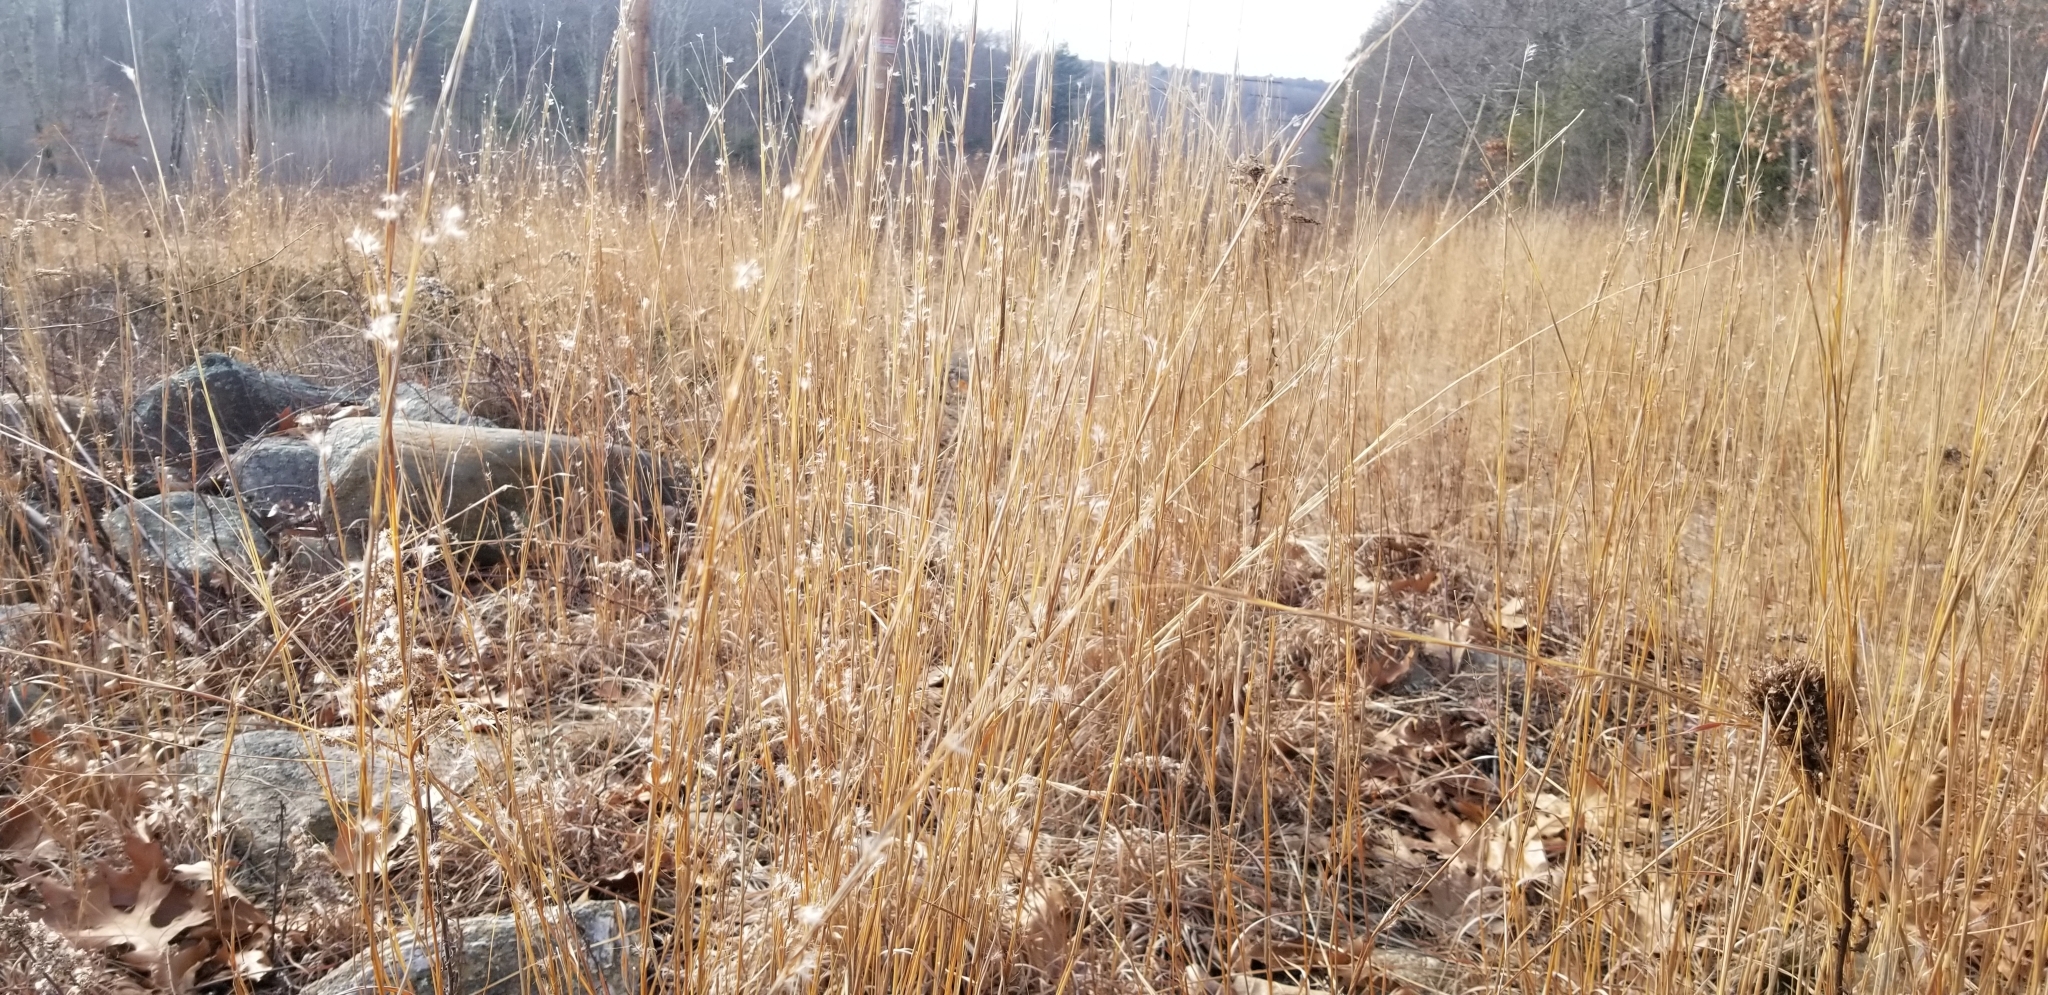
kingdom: Plantae
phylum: Tracheophyta
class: Liliopsida
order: Poales
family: Poaceae
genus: Schizachyrium
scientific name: Schizachyrium scoparium
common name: Little bluestem
